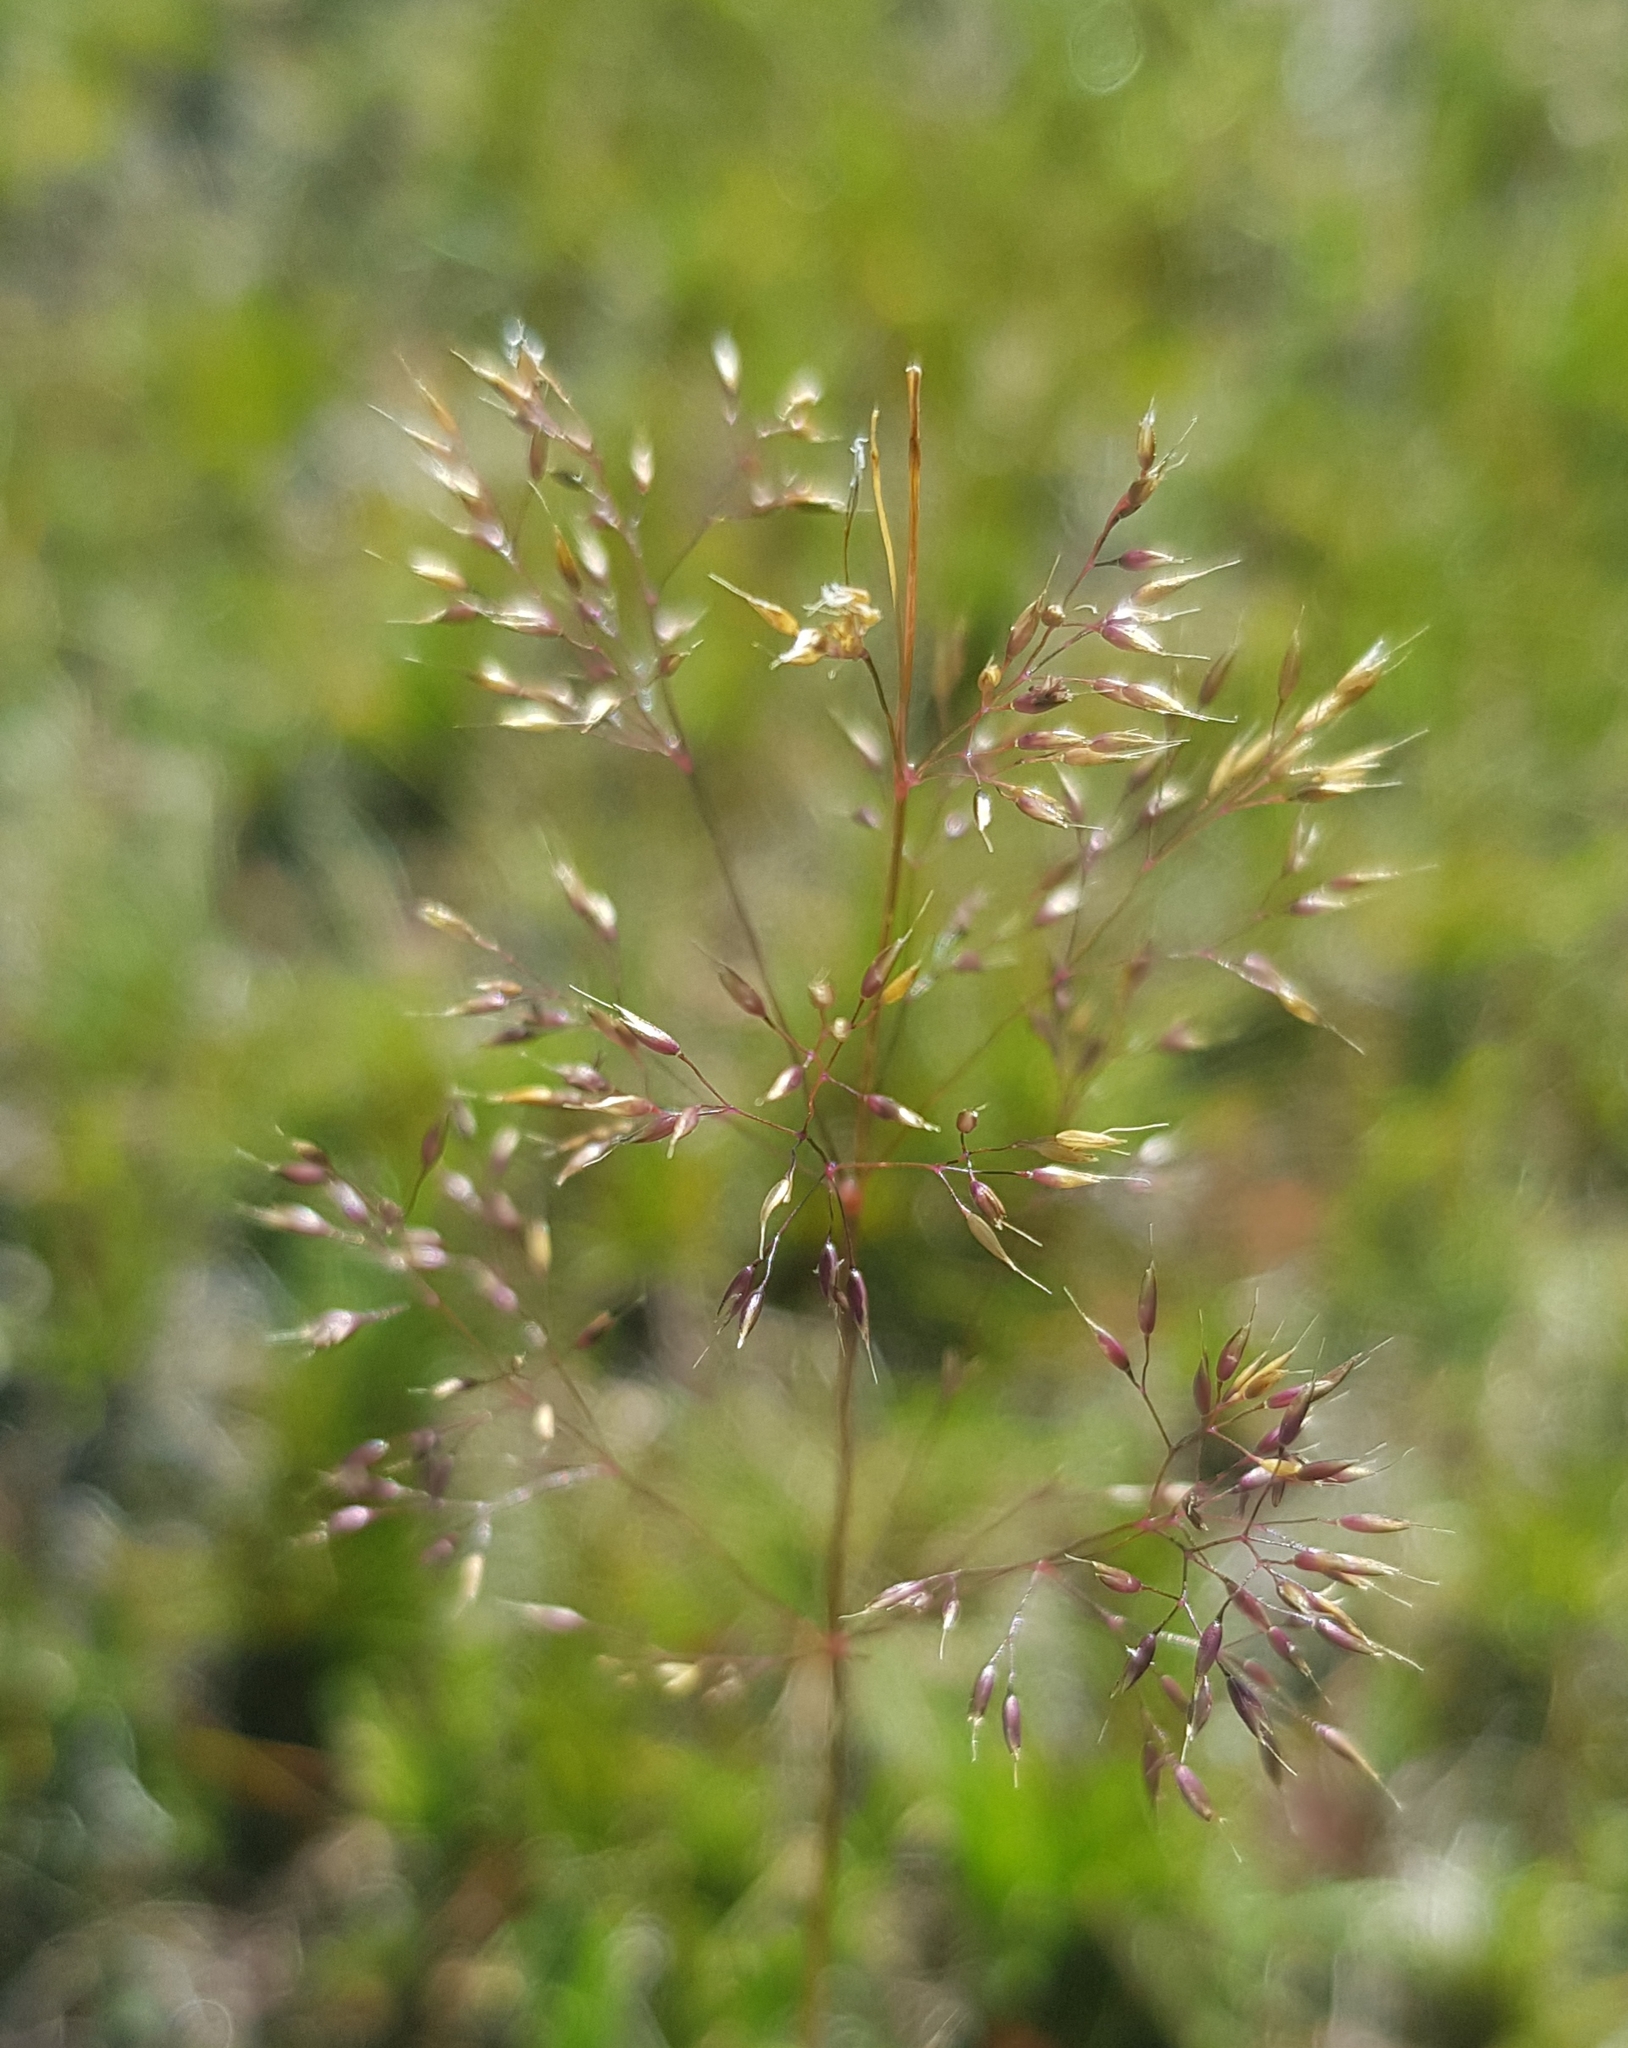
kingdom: Plantae
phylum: Tracheophyta
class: Liliopsida
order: Poales
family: Poaceae
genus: Agrostis
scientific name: Agrostis vinealis
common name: Brown bent
